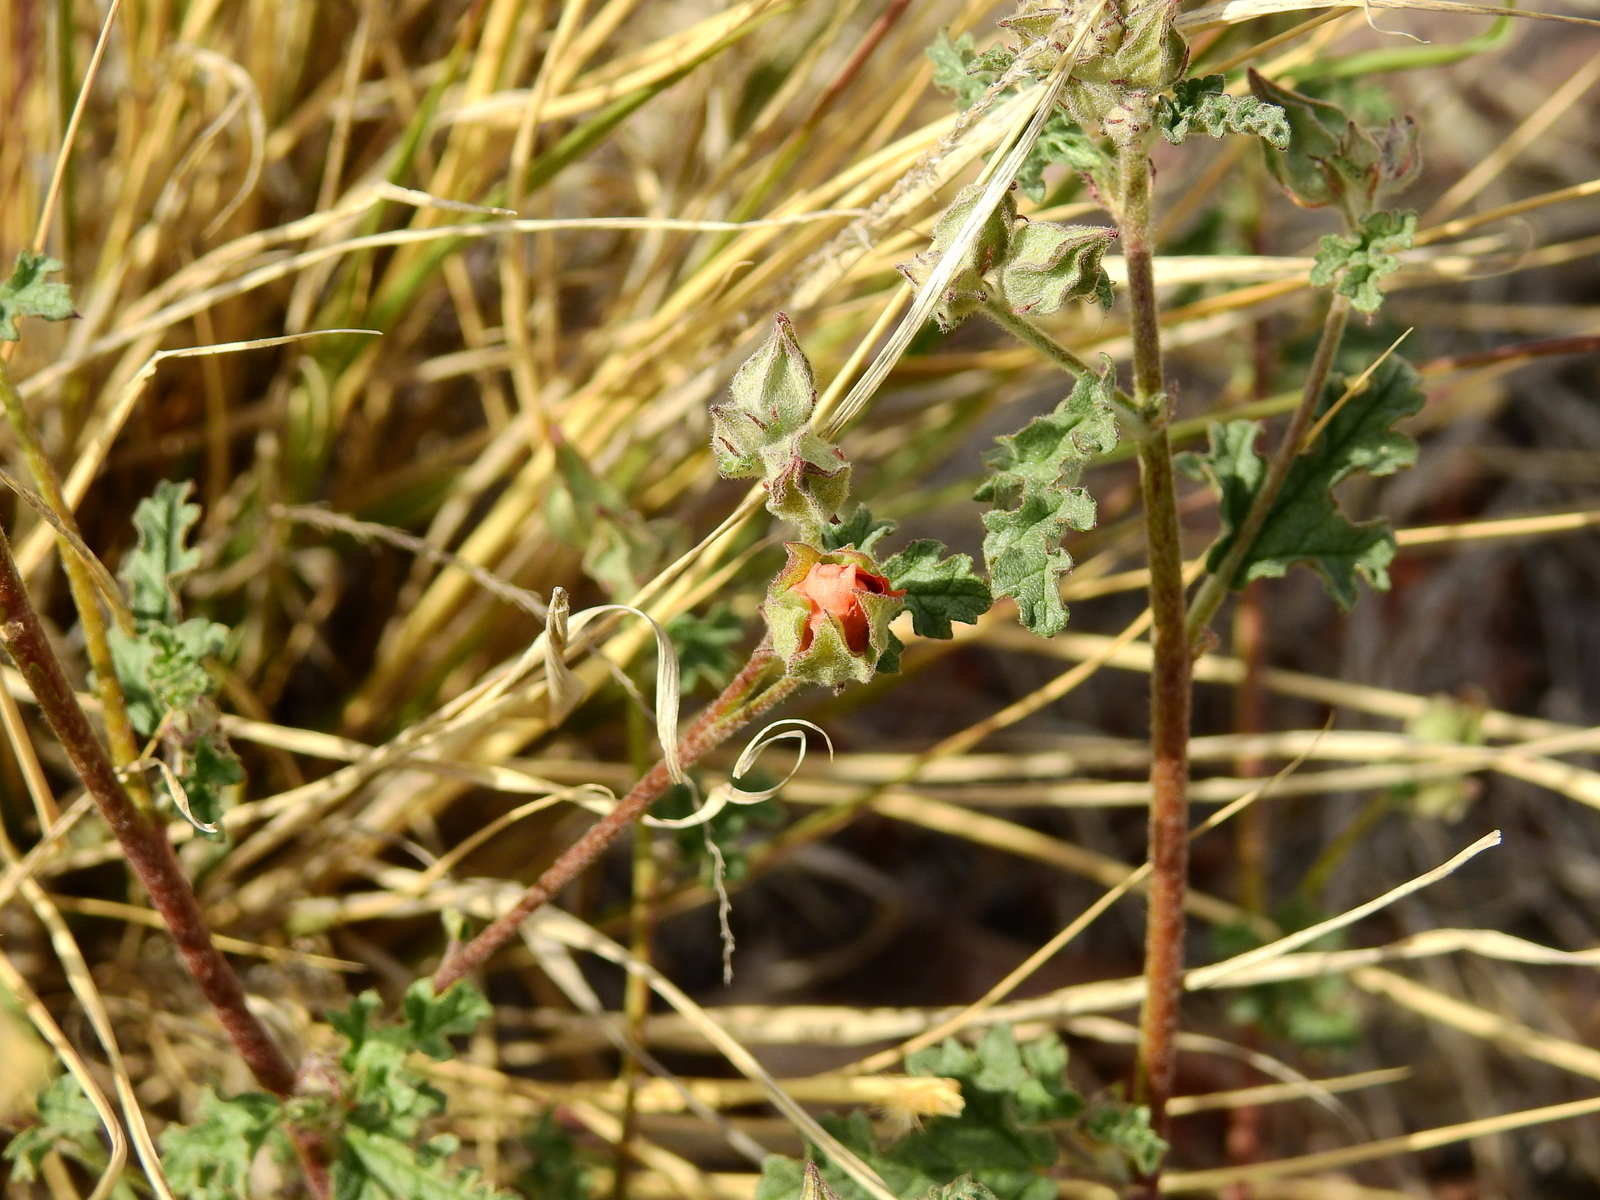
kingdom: Plantae
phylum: Tracheophyta
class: Magnoliopsida
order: Malvales
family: Malvaceae
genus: Sphaeralcea
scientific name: Sphaeralcea miniata
